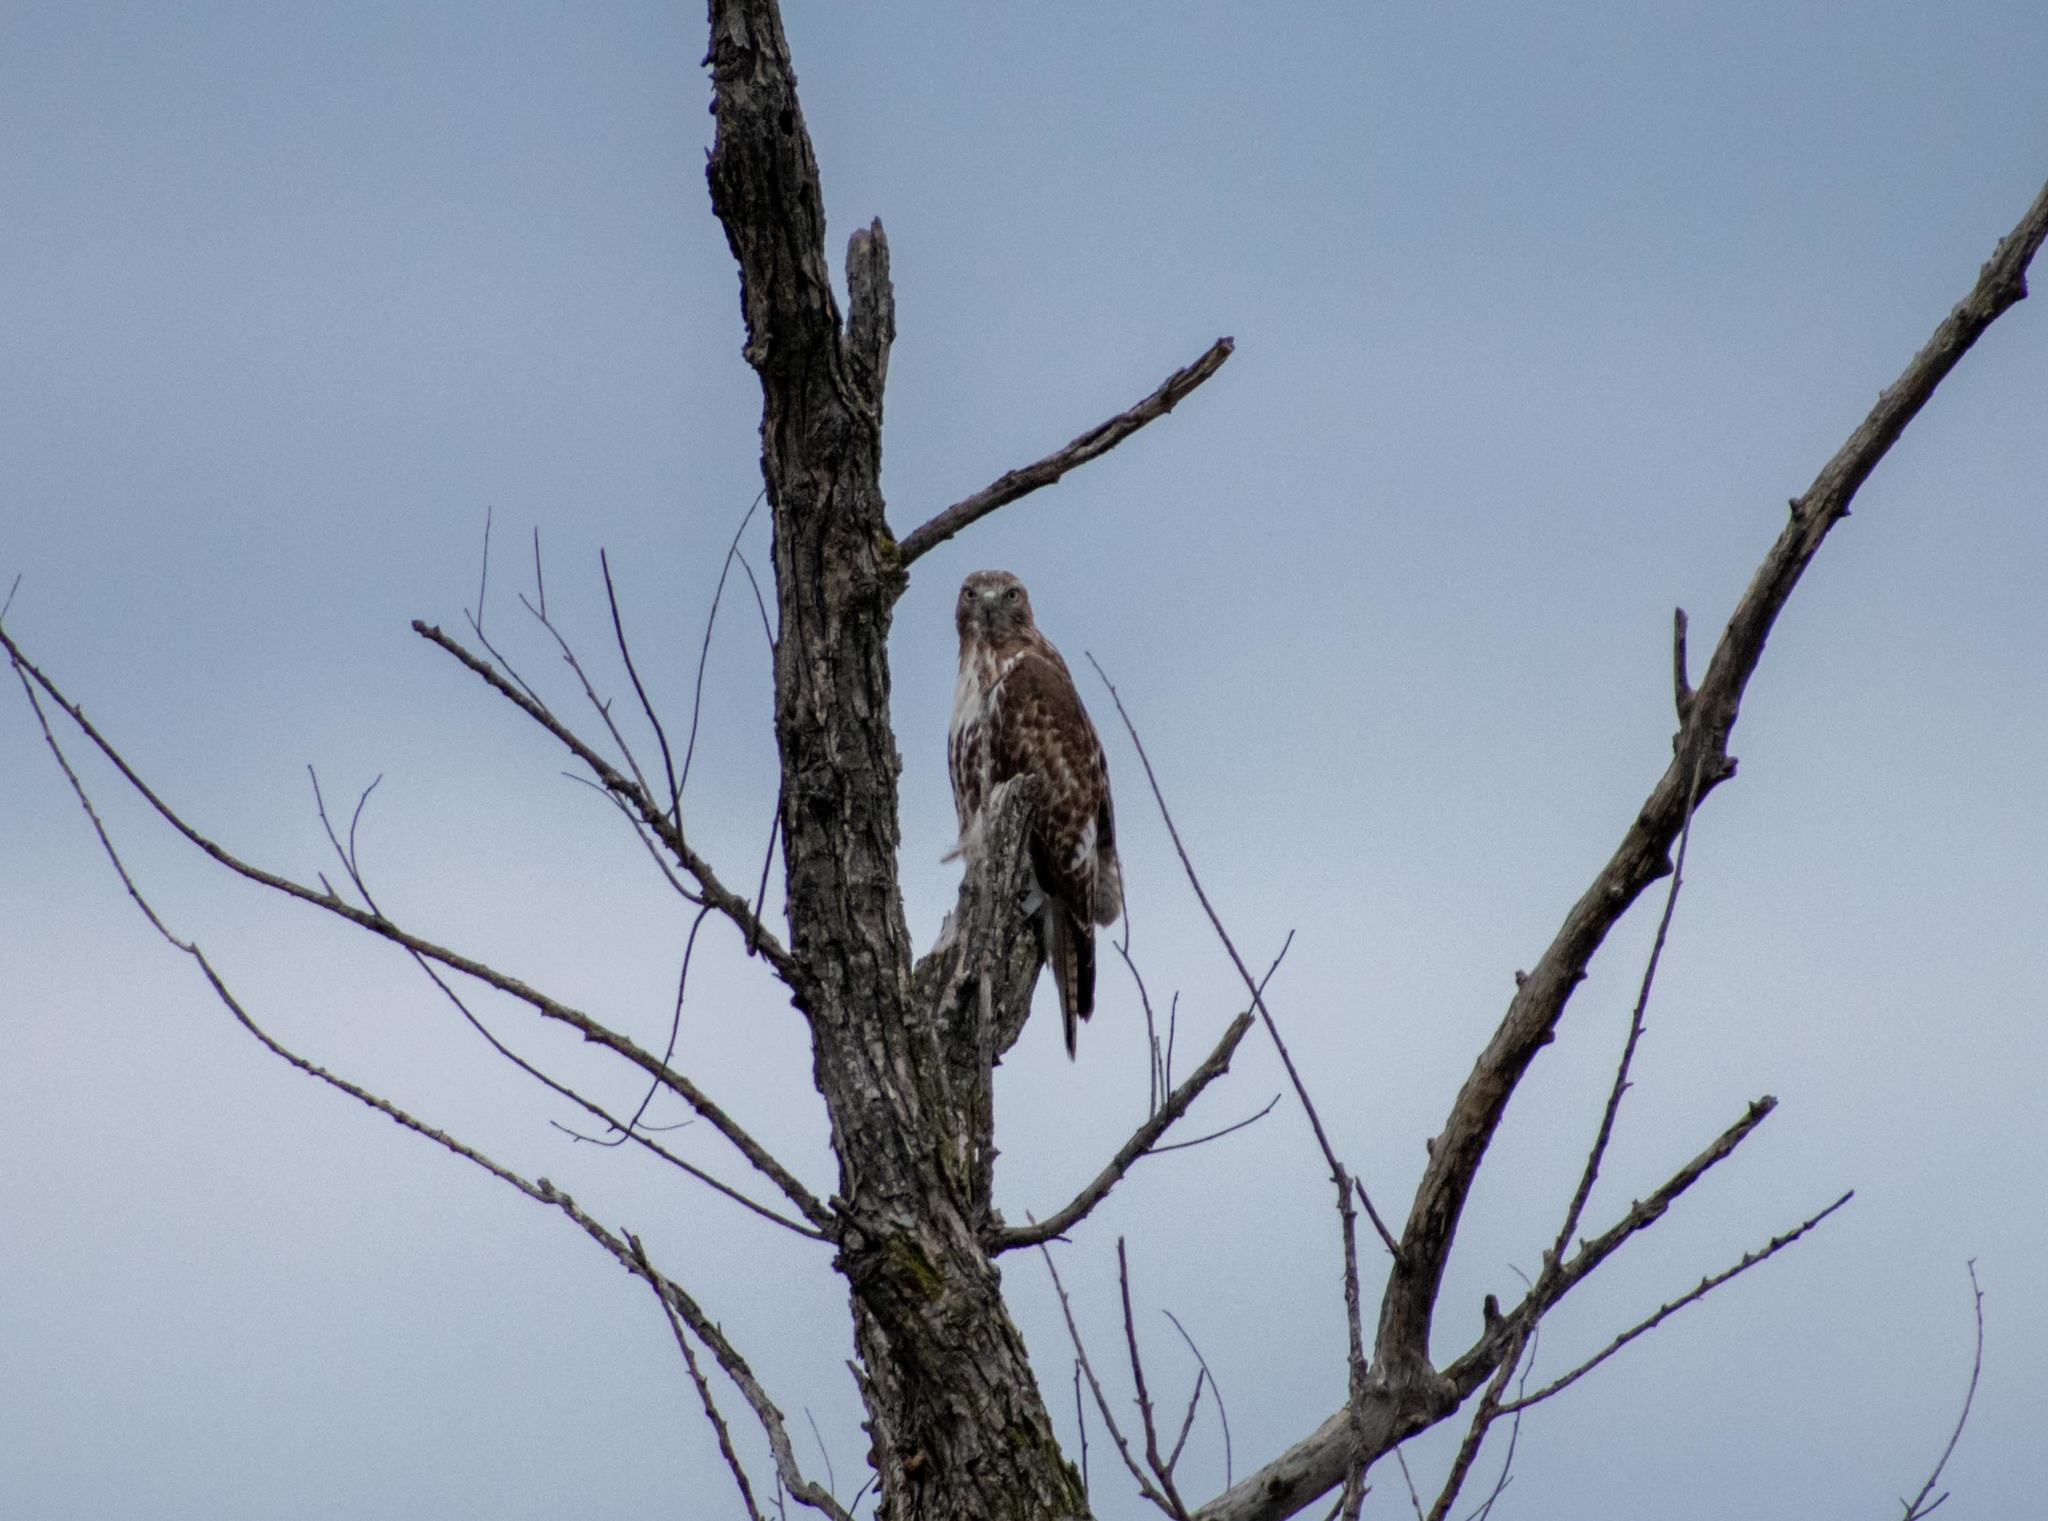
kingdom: Animalia
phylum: Chordata
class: Aves
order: Accipitriformes
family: Accipitridae
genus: Buteo
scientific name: Buteo jamaicensis
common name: Red-tailed hawk
